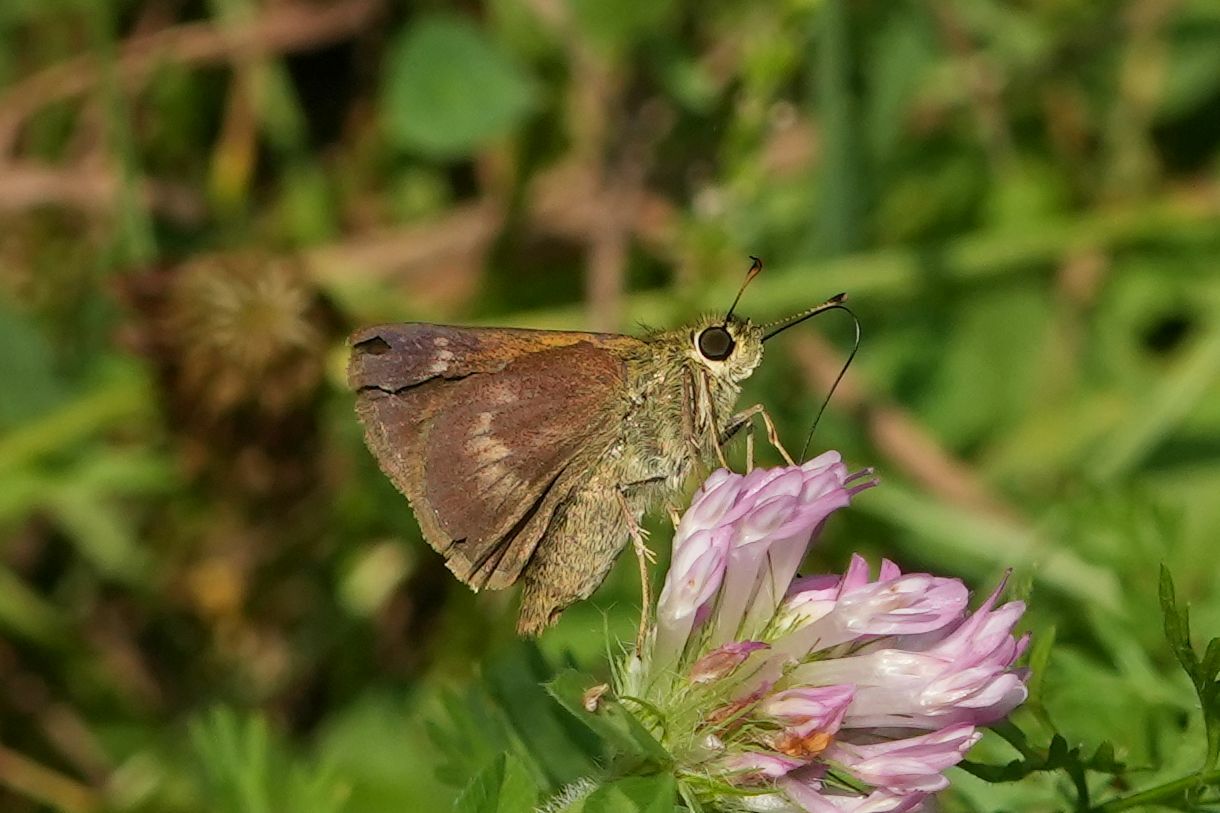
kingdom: Animalia
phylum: Arthropoda
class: Insecta
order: Lepidoptera
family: Hesperiidae
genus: Polites
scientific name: Polites egeremet
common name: Northern broken-dash
